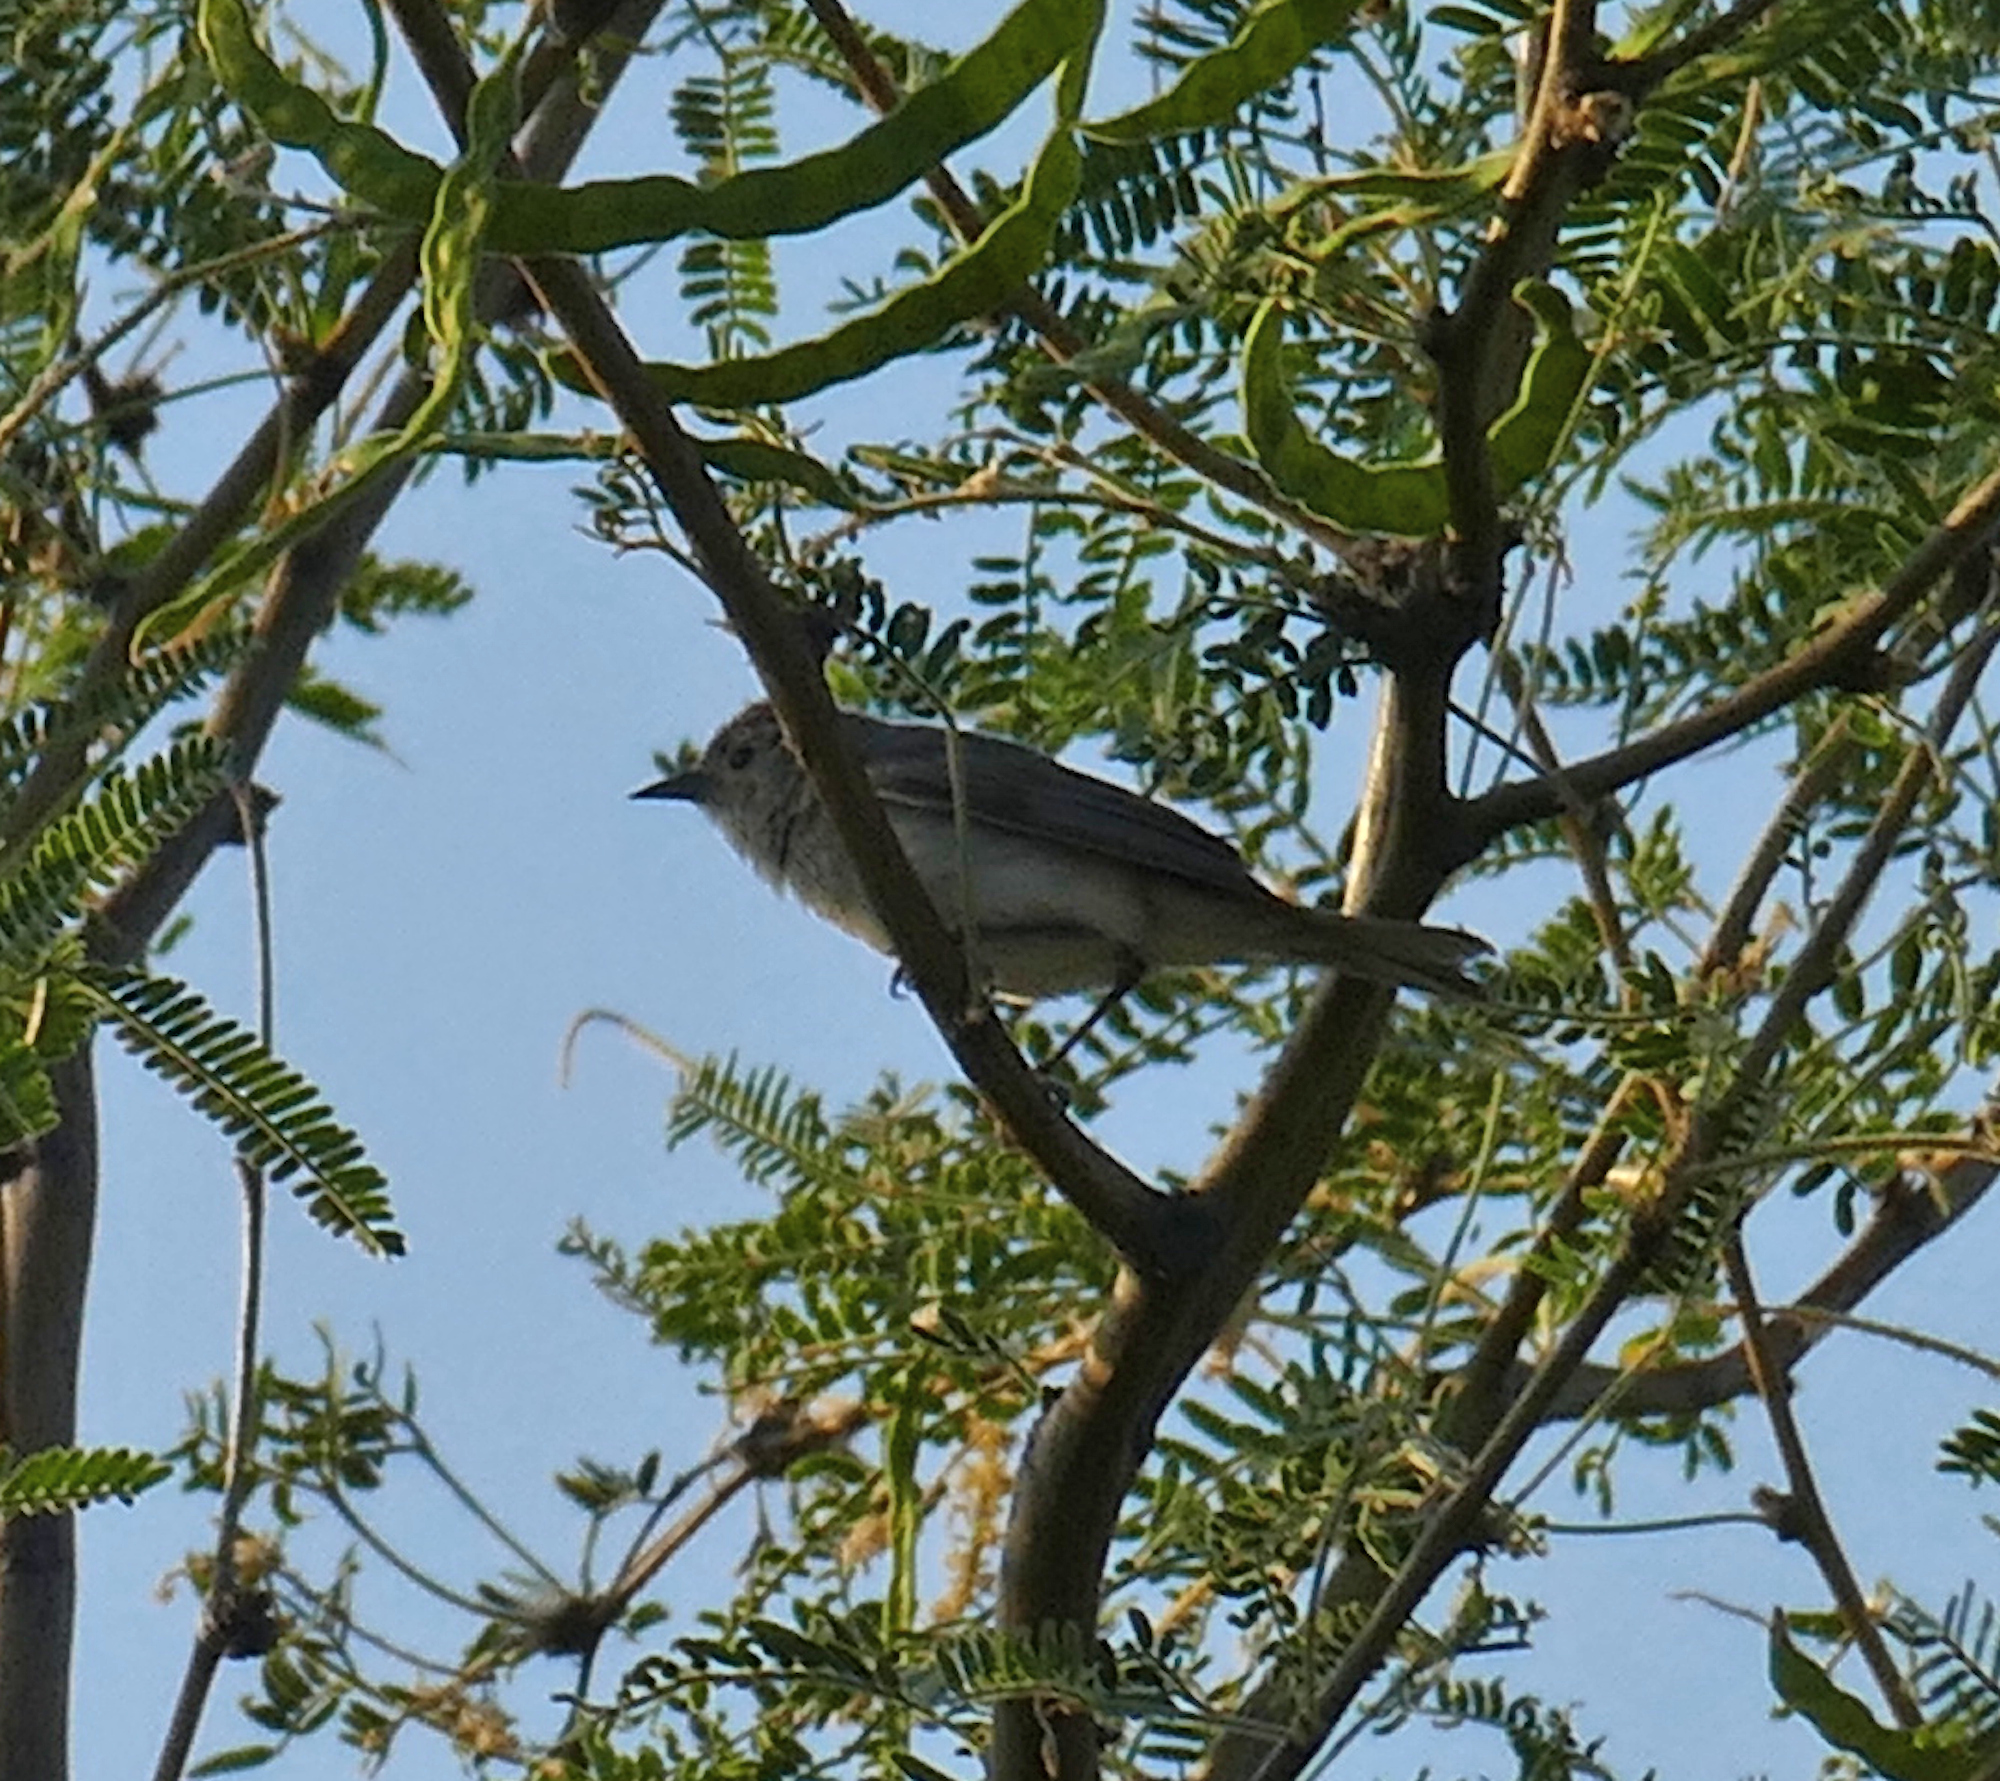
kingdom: Animalia
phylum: Chordata
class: Aves
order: Passeriformes
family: Parulidae
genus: Leiothlypis
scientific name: Leiothlypis luciae
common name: Lucy's warbler
